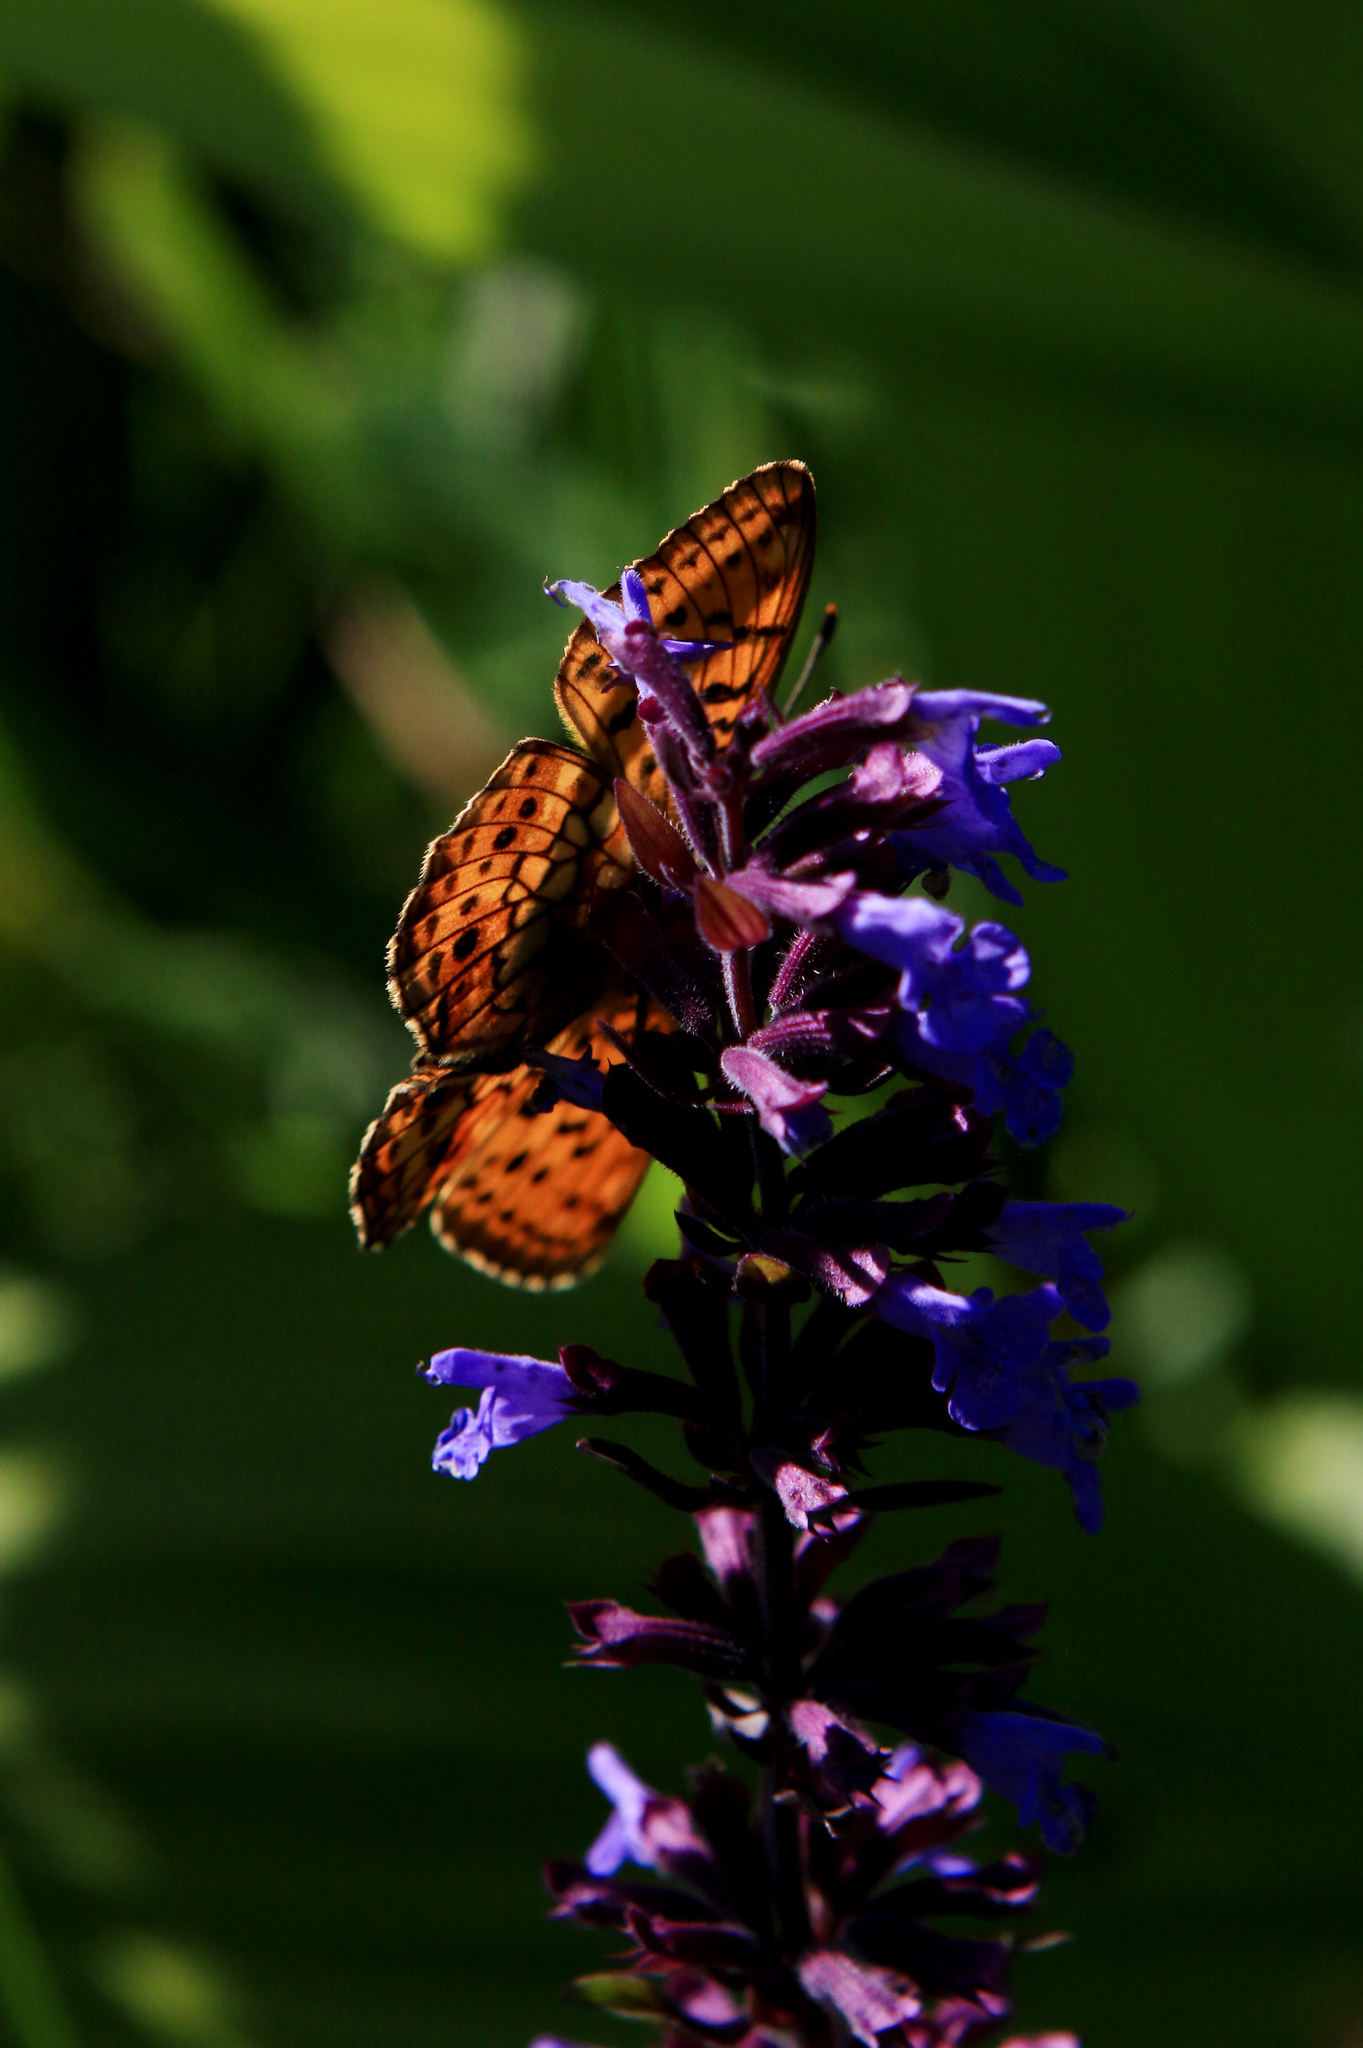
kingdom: Animalia
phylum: Arthropoda
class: Insecta
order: Lepidoptera
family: Nymphalidae
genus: Brenthis
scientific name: Brenthis ino
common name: Lesser marbled fritillary
